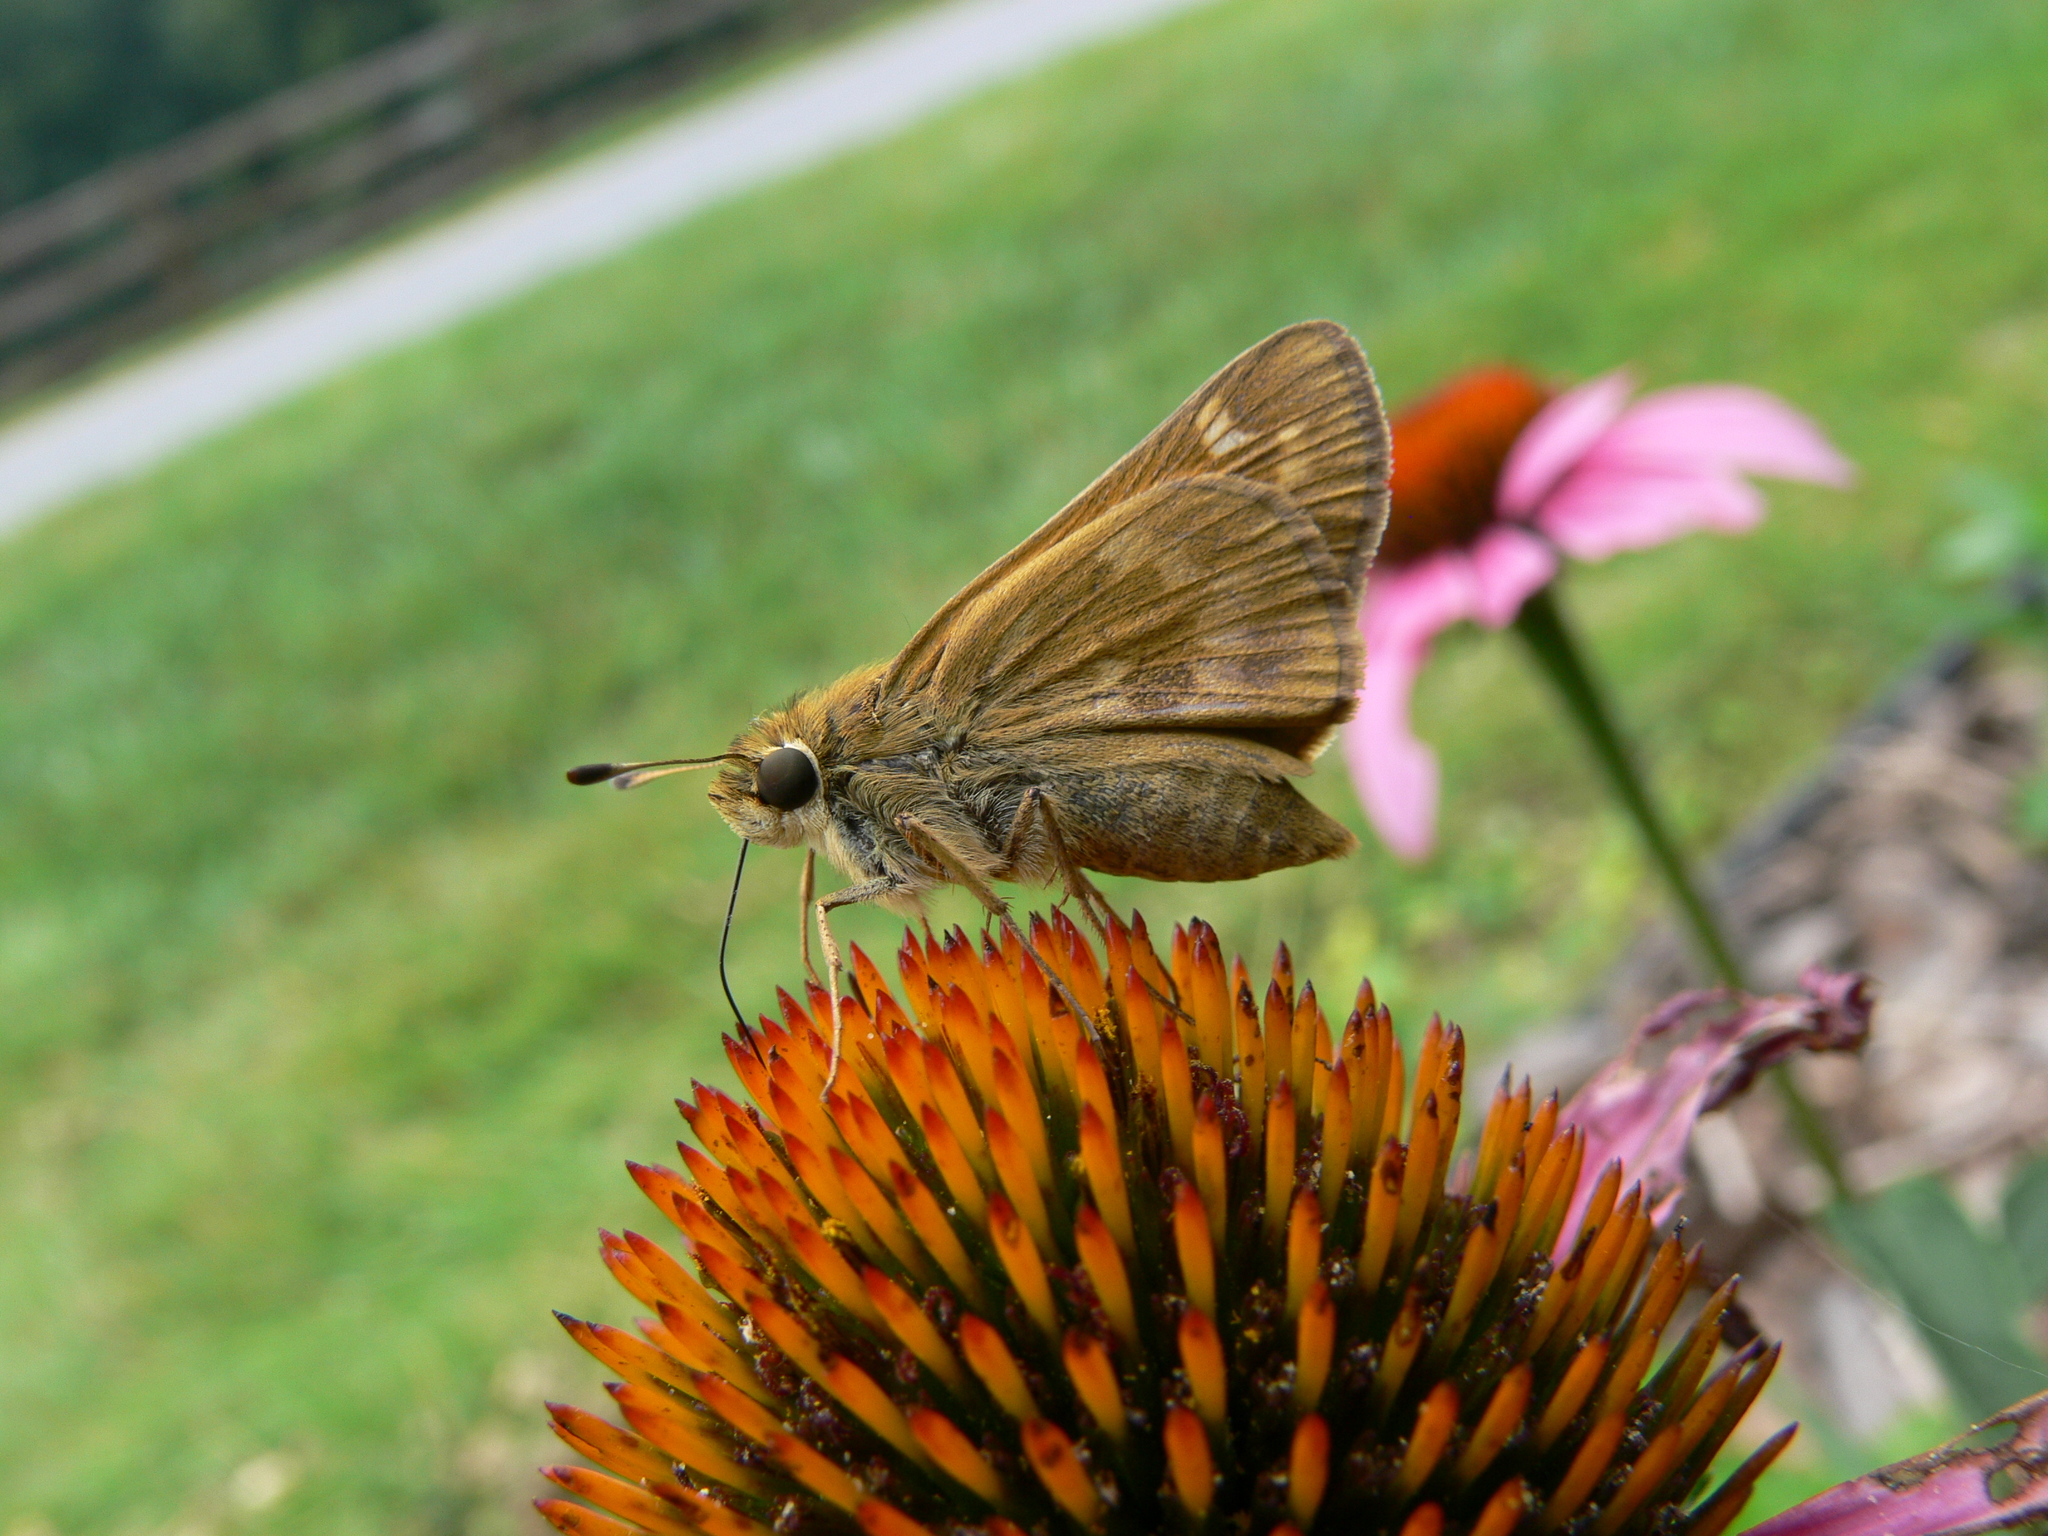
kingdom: Animalia
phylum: Arthropoda
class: Insecta
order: Lepidoptera
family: Hesperiidae
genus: Atalopedes
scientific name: Atalopedes
